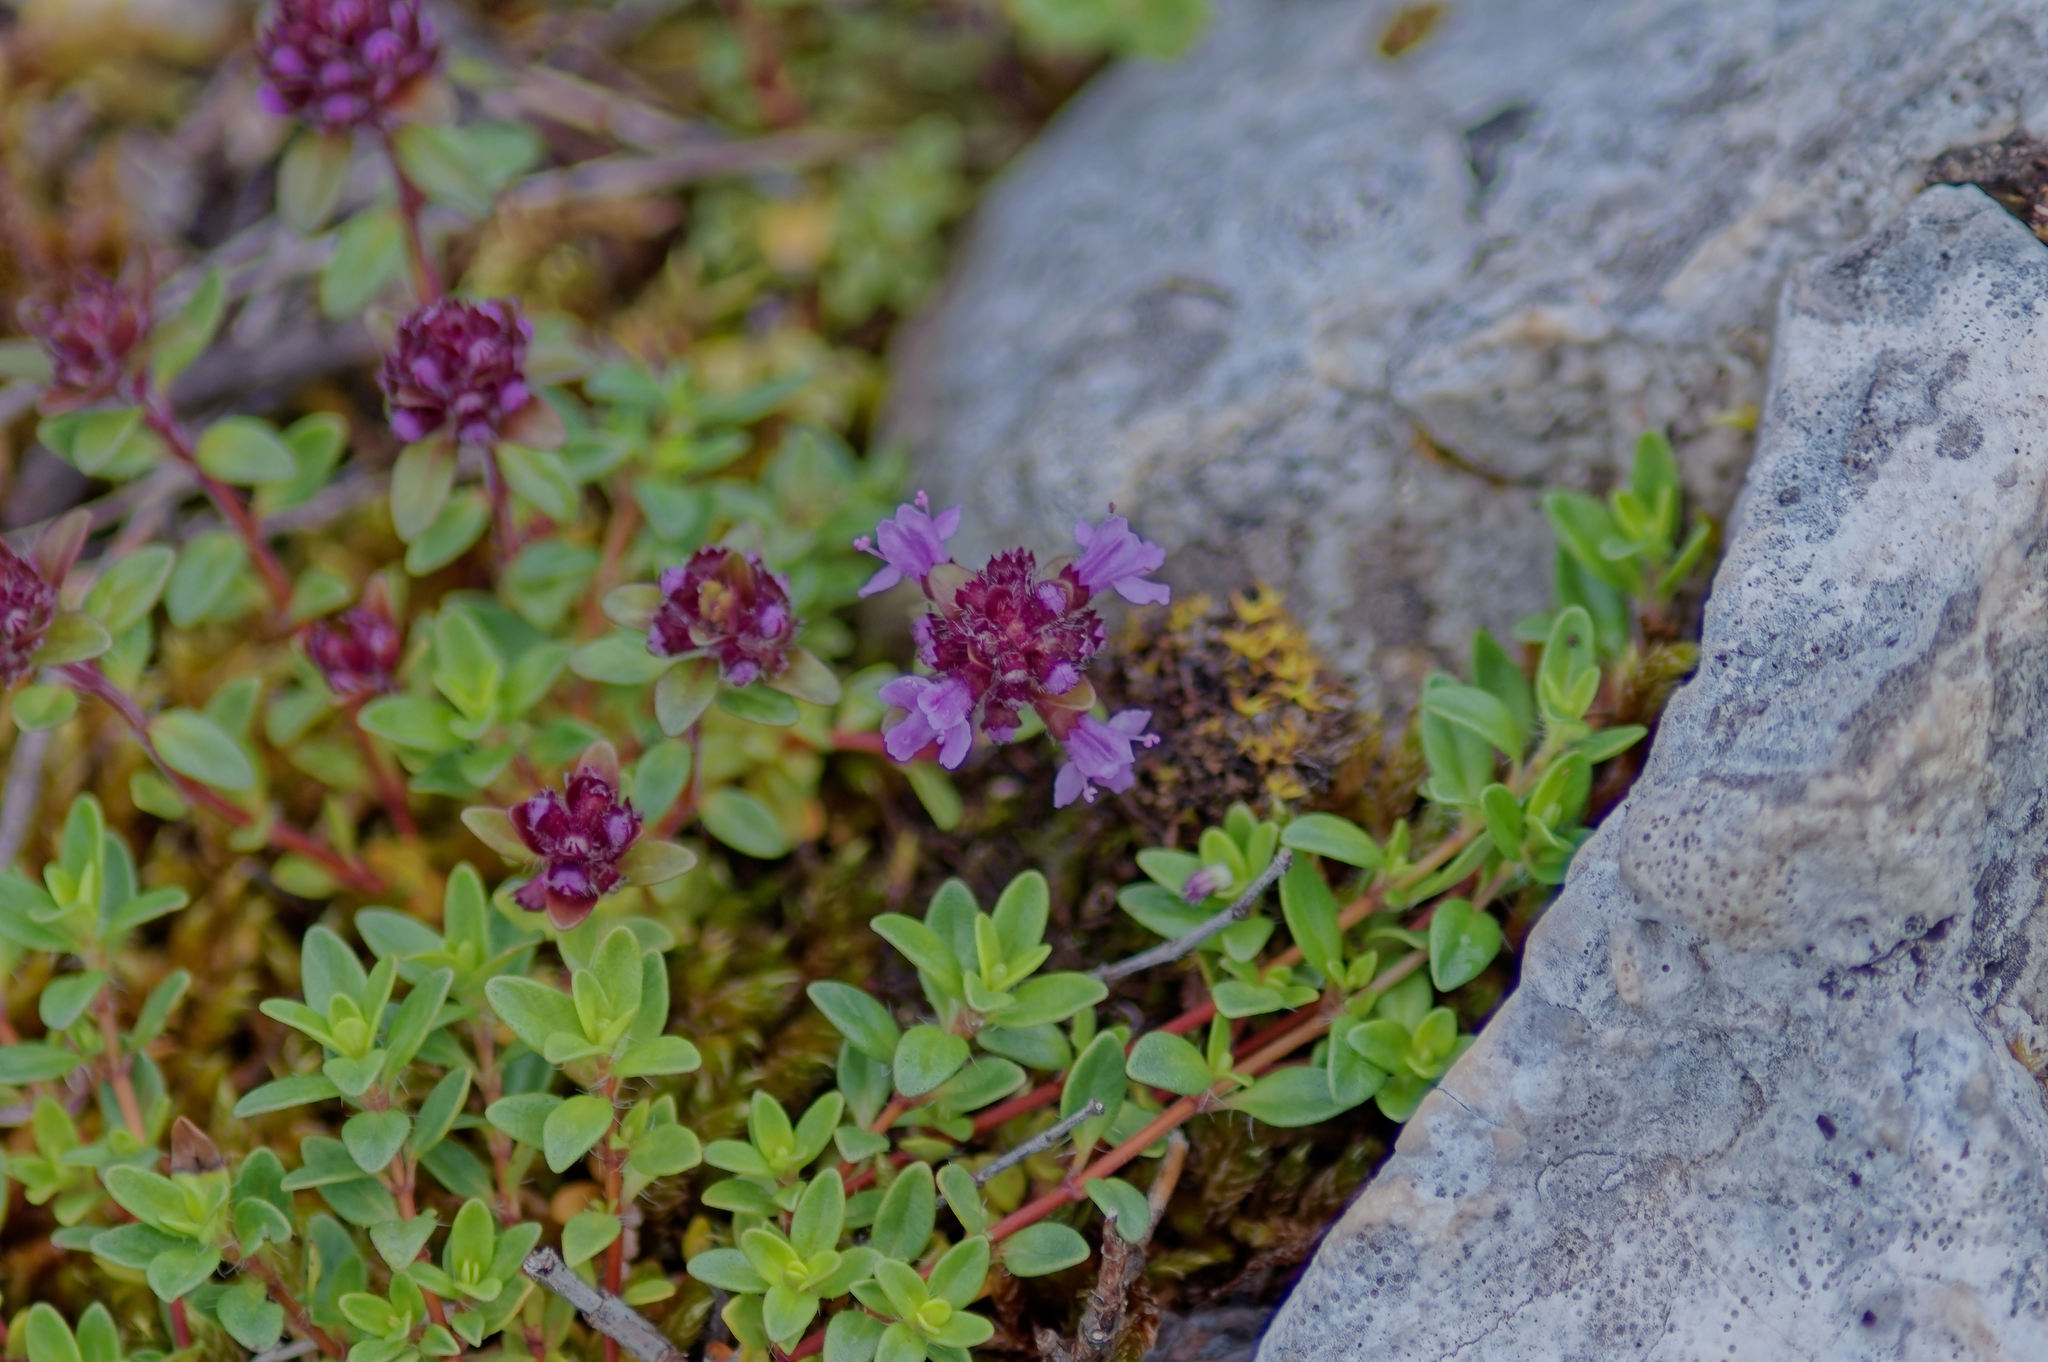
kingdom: Plantae
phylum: Tracheophyta
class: Magnoliopsida
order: Lamiales
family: Lamiaceae
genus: Thymus
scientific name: Thymus praecox
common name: Wild thyme
